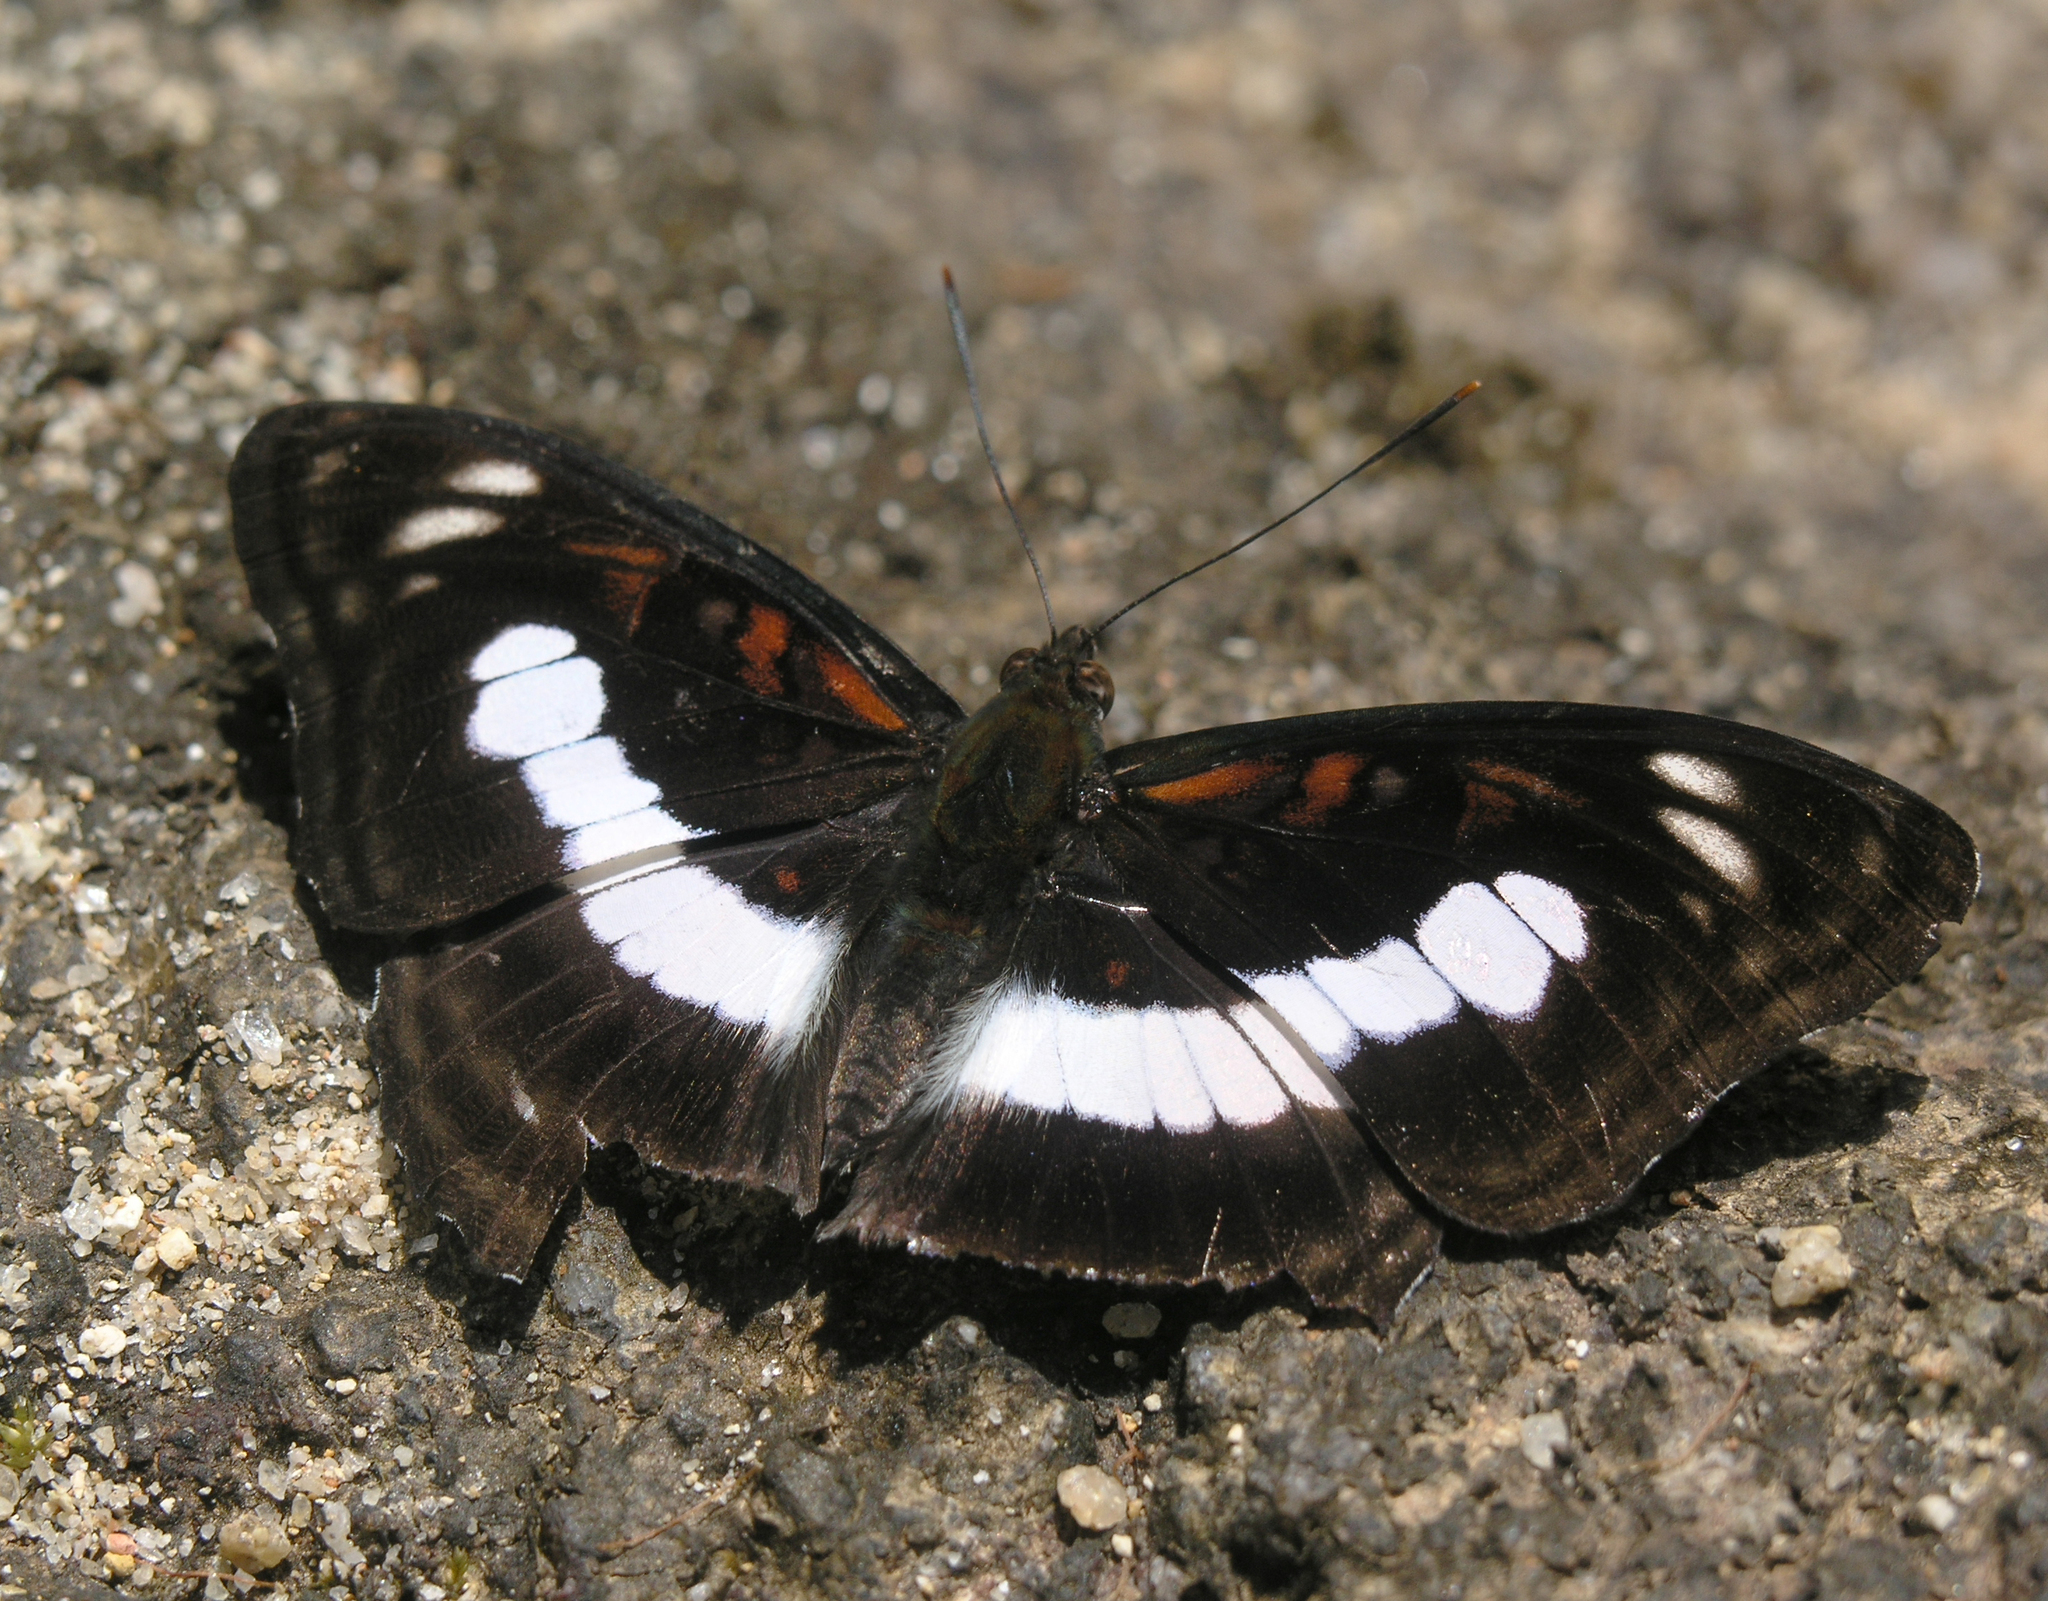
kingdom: Animalia
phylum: Arthropoda
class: Insecta
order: Lepidoptera
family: Nymphalidae
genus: Parathyma
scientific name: Parathyma selenophora
